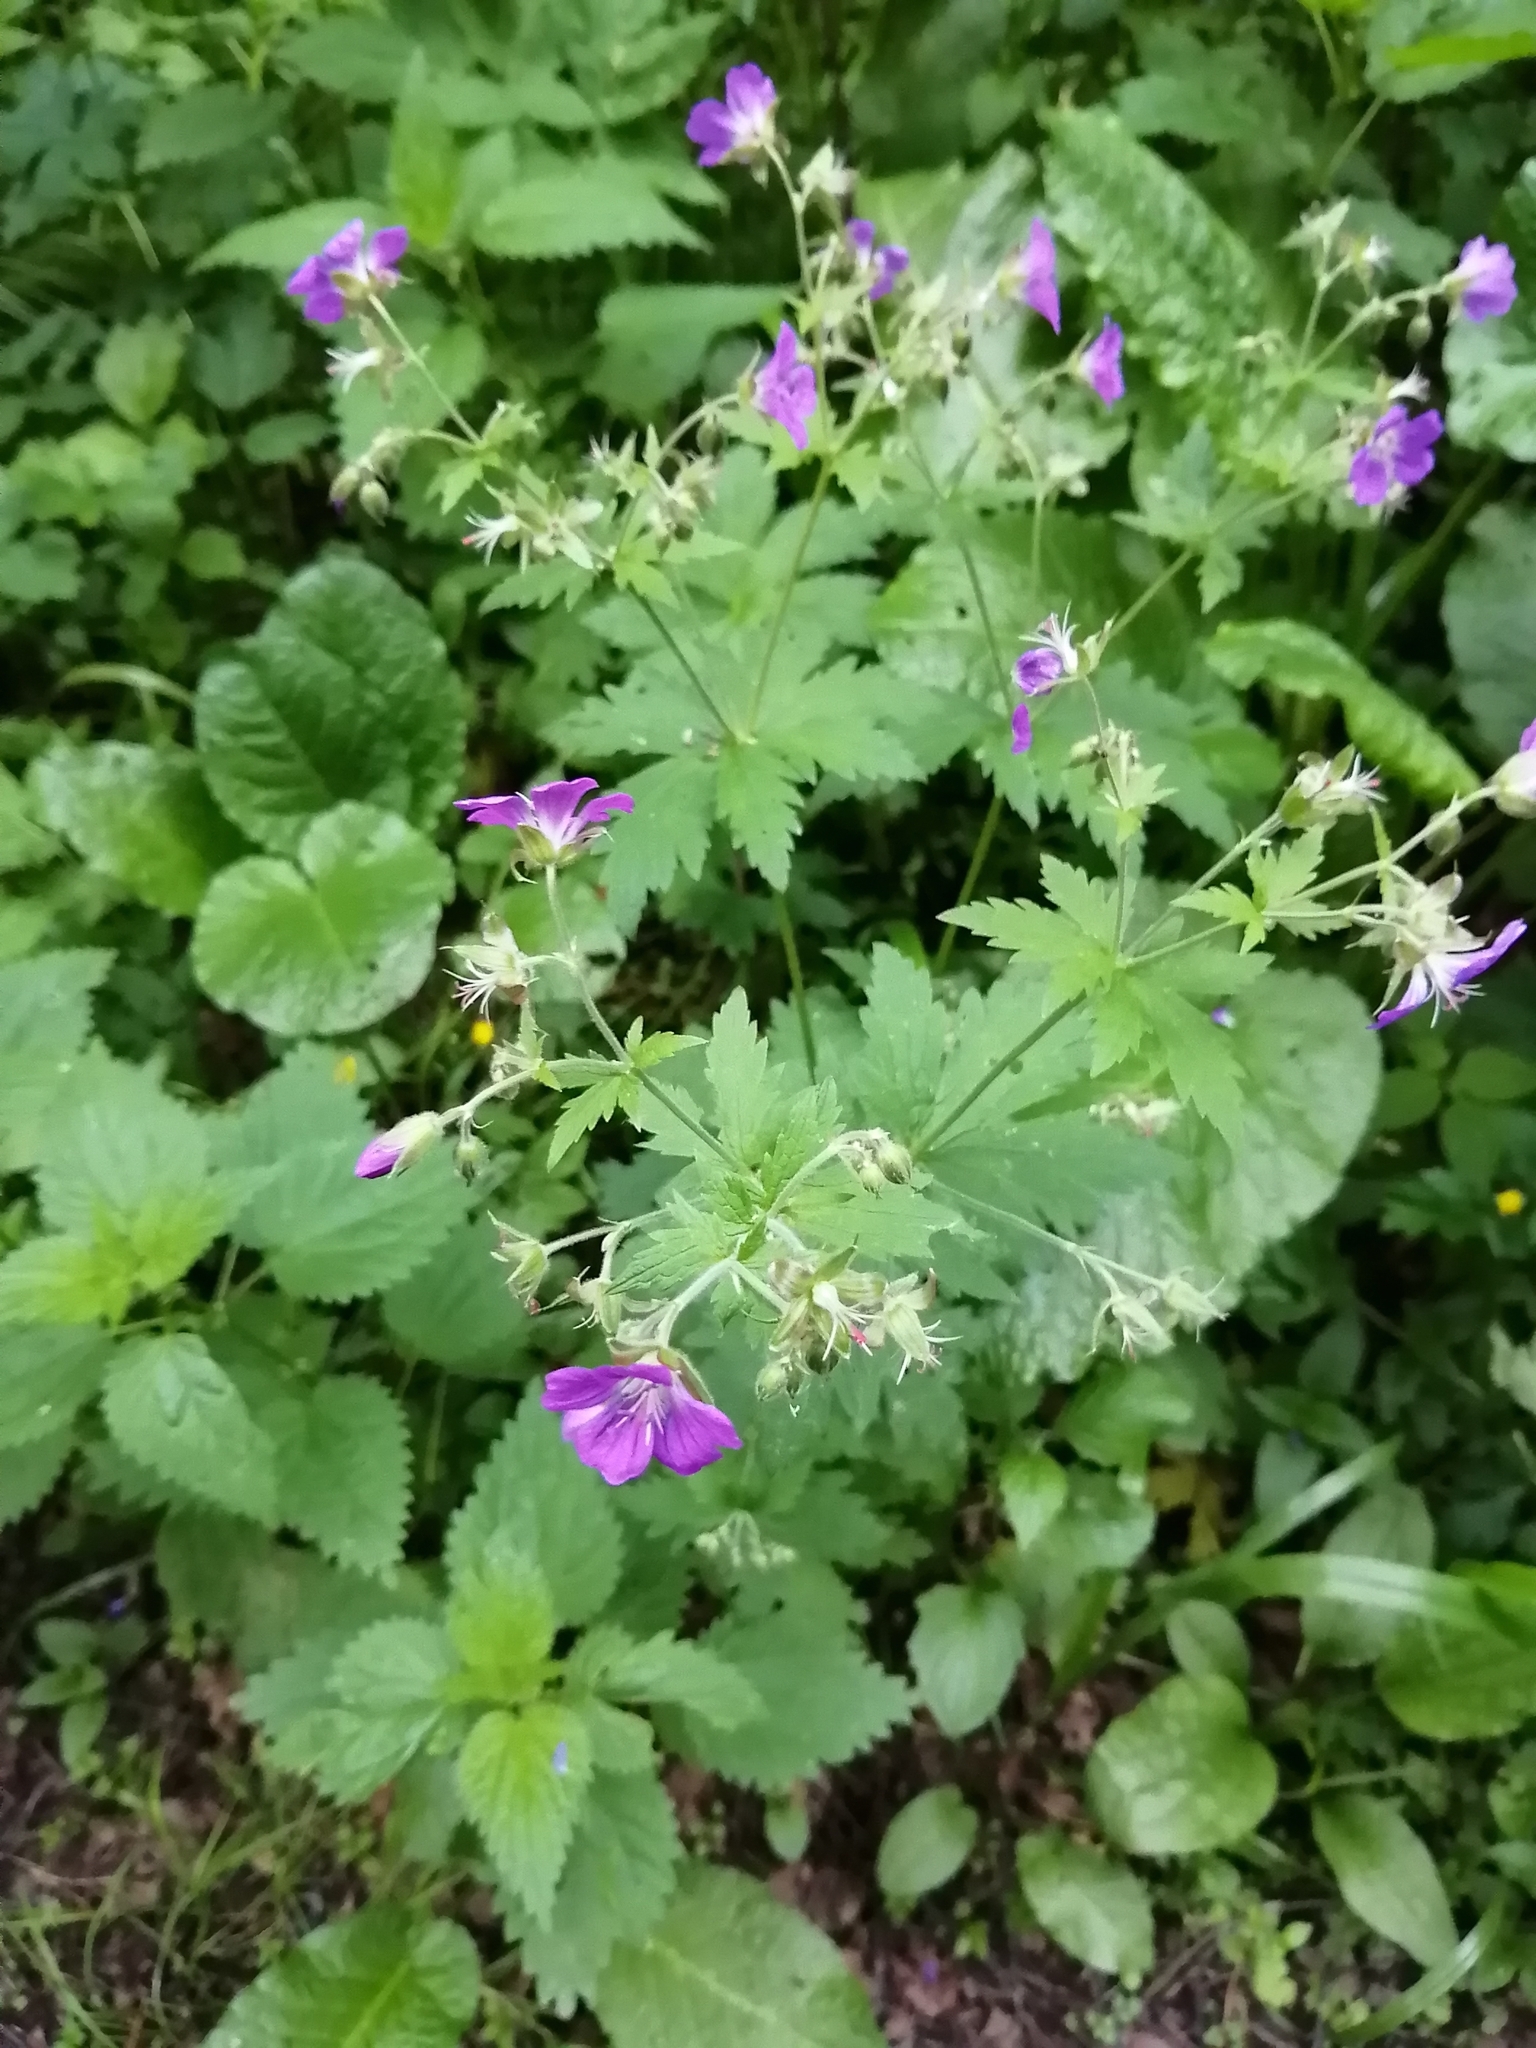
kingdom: Plantae
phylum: Tracheophyta
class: Magnoliopsida
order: Geraniales
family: Geraniaceae
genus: Geranium
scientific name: Geranium sylvaticum
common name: Wood crane's-bill
